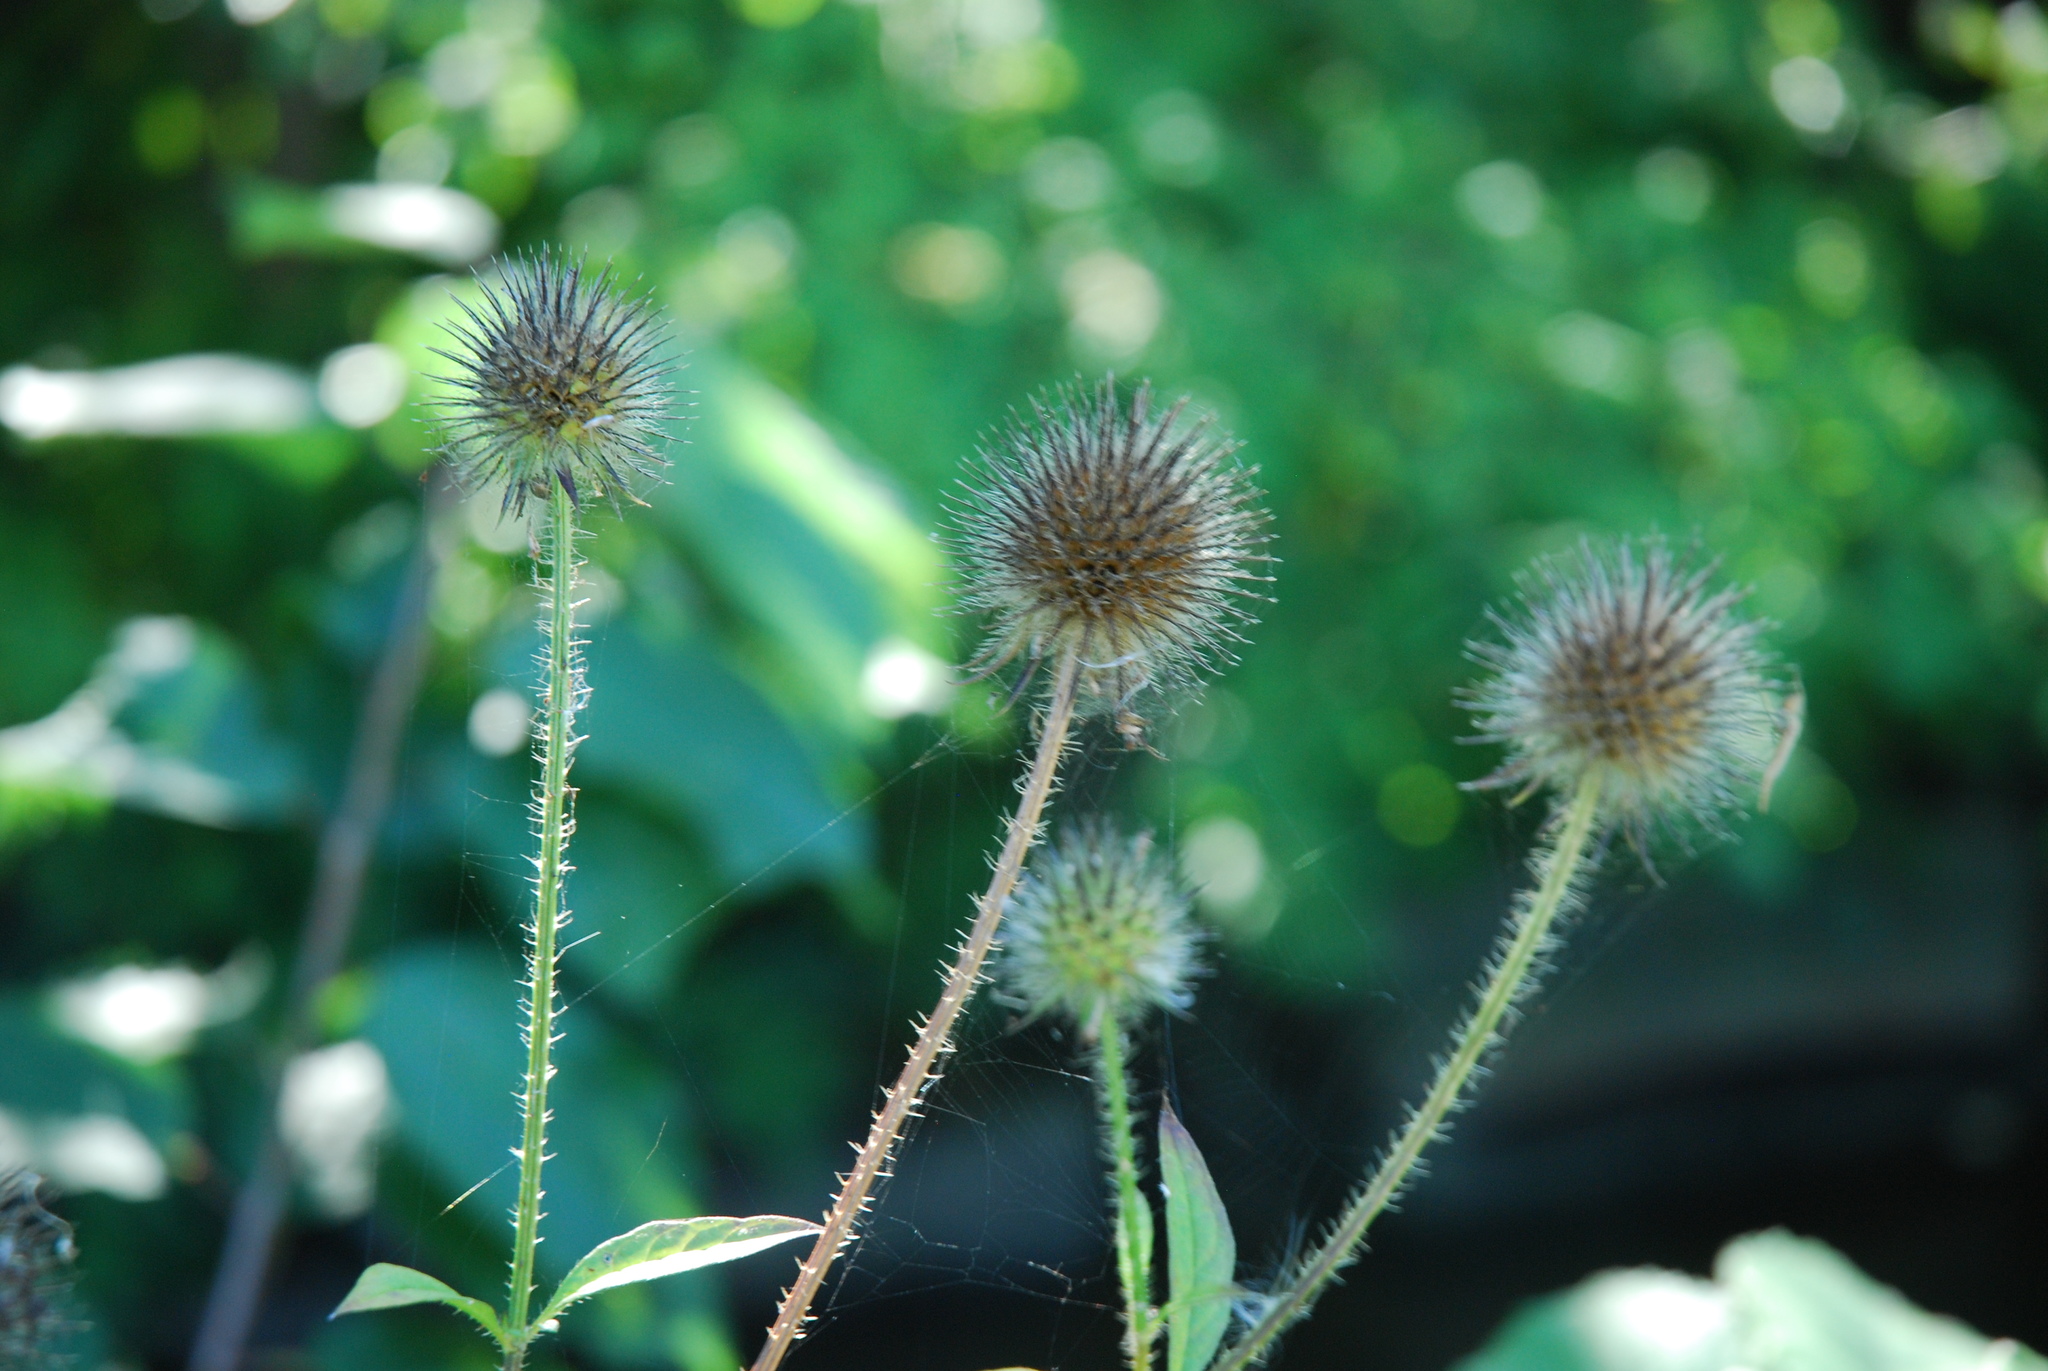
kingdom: Plantae
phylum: Tracheophyta
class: Magnoliopsida
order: Dipsacales
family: Caprifoliaceae
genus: Dipsacus
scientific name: Dipsacus strigosus
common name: Yellow-flowered teasel
